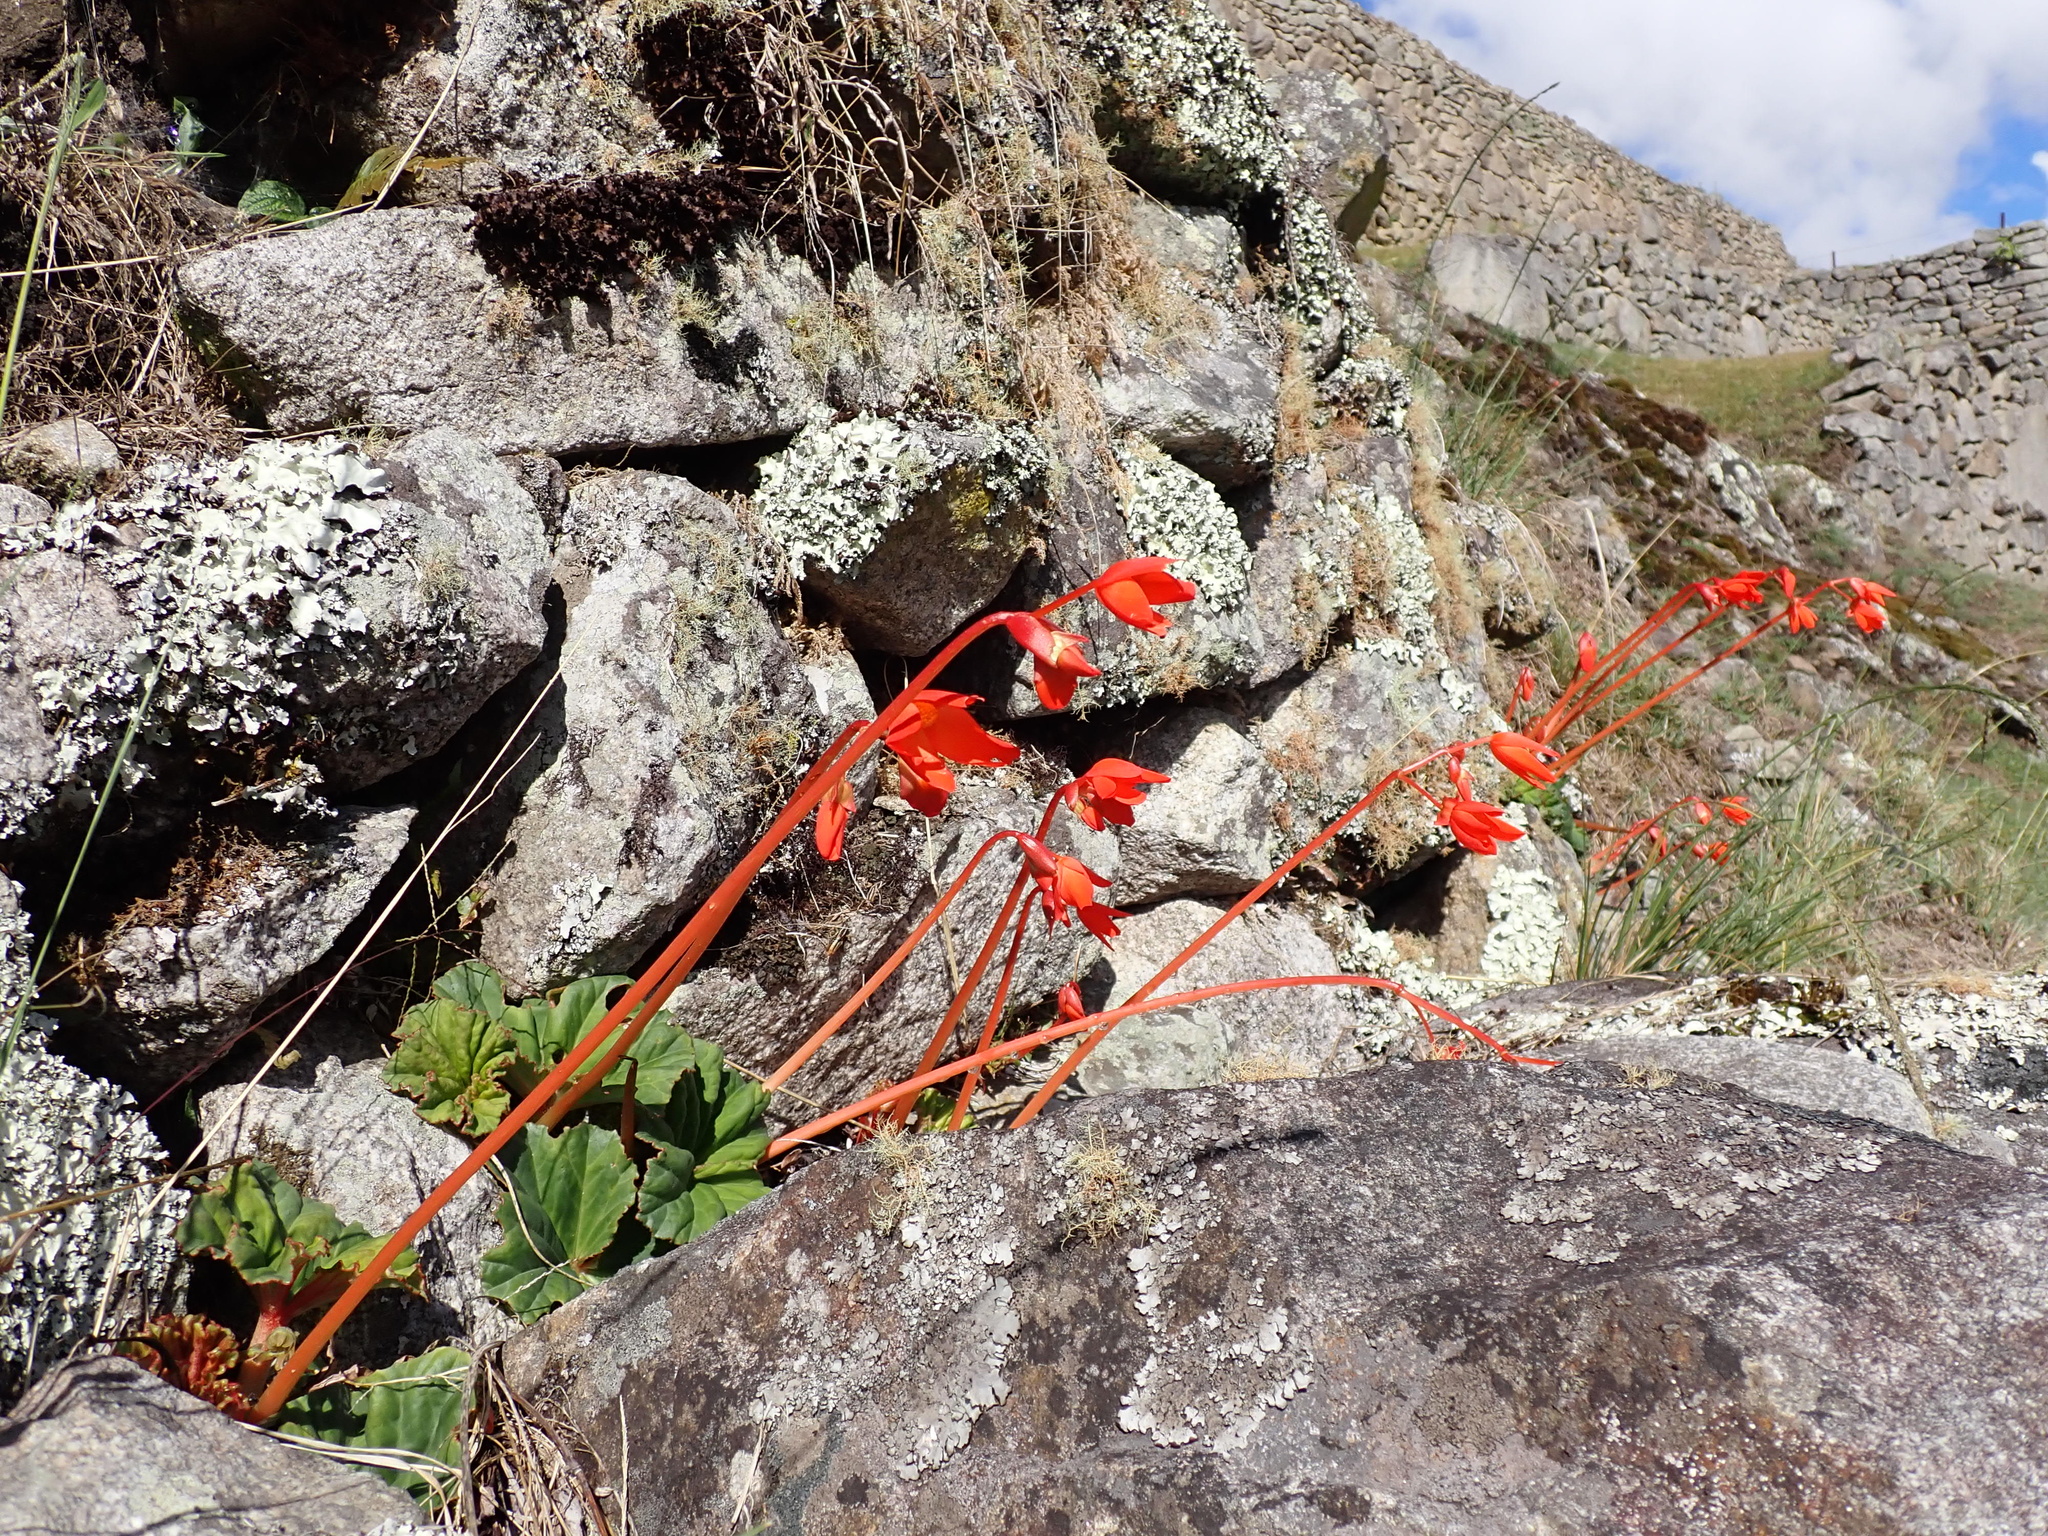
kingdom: Plantae
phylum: Tracheophyta
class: Magnoliopsida
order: Cucurbitales
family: Begoniaceae
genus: Begonia
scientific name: Begonia veitchii
